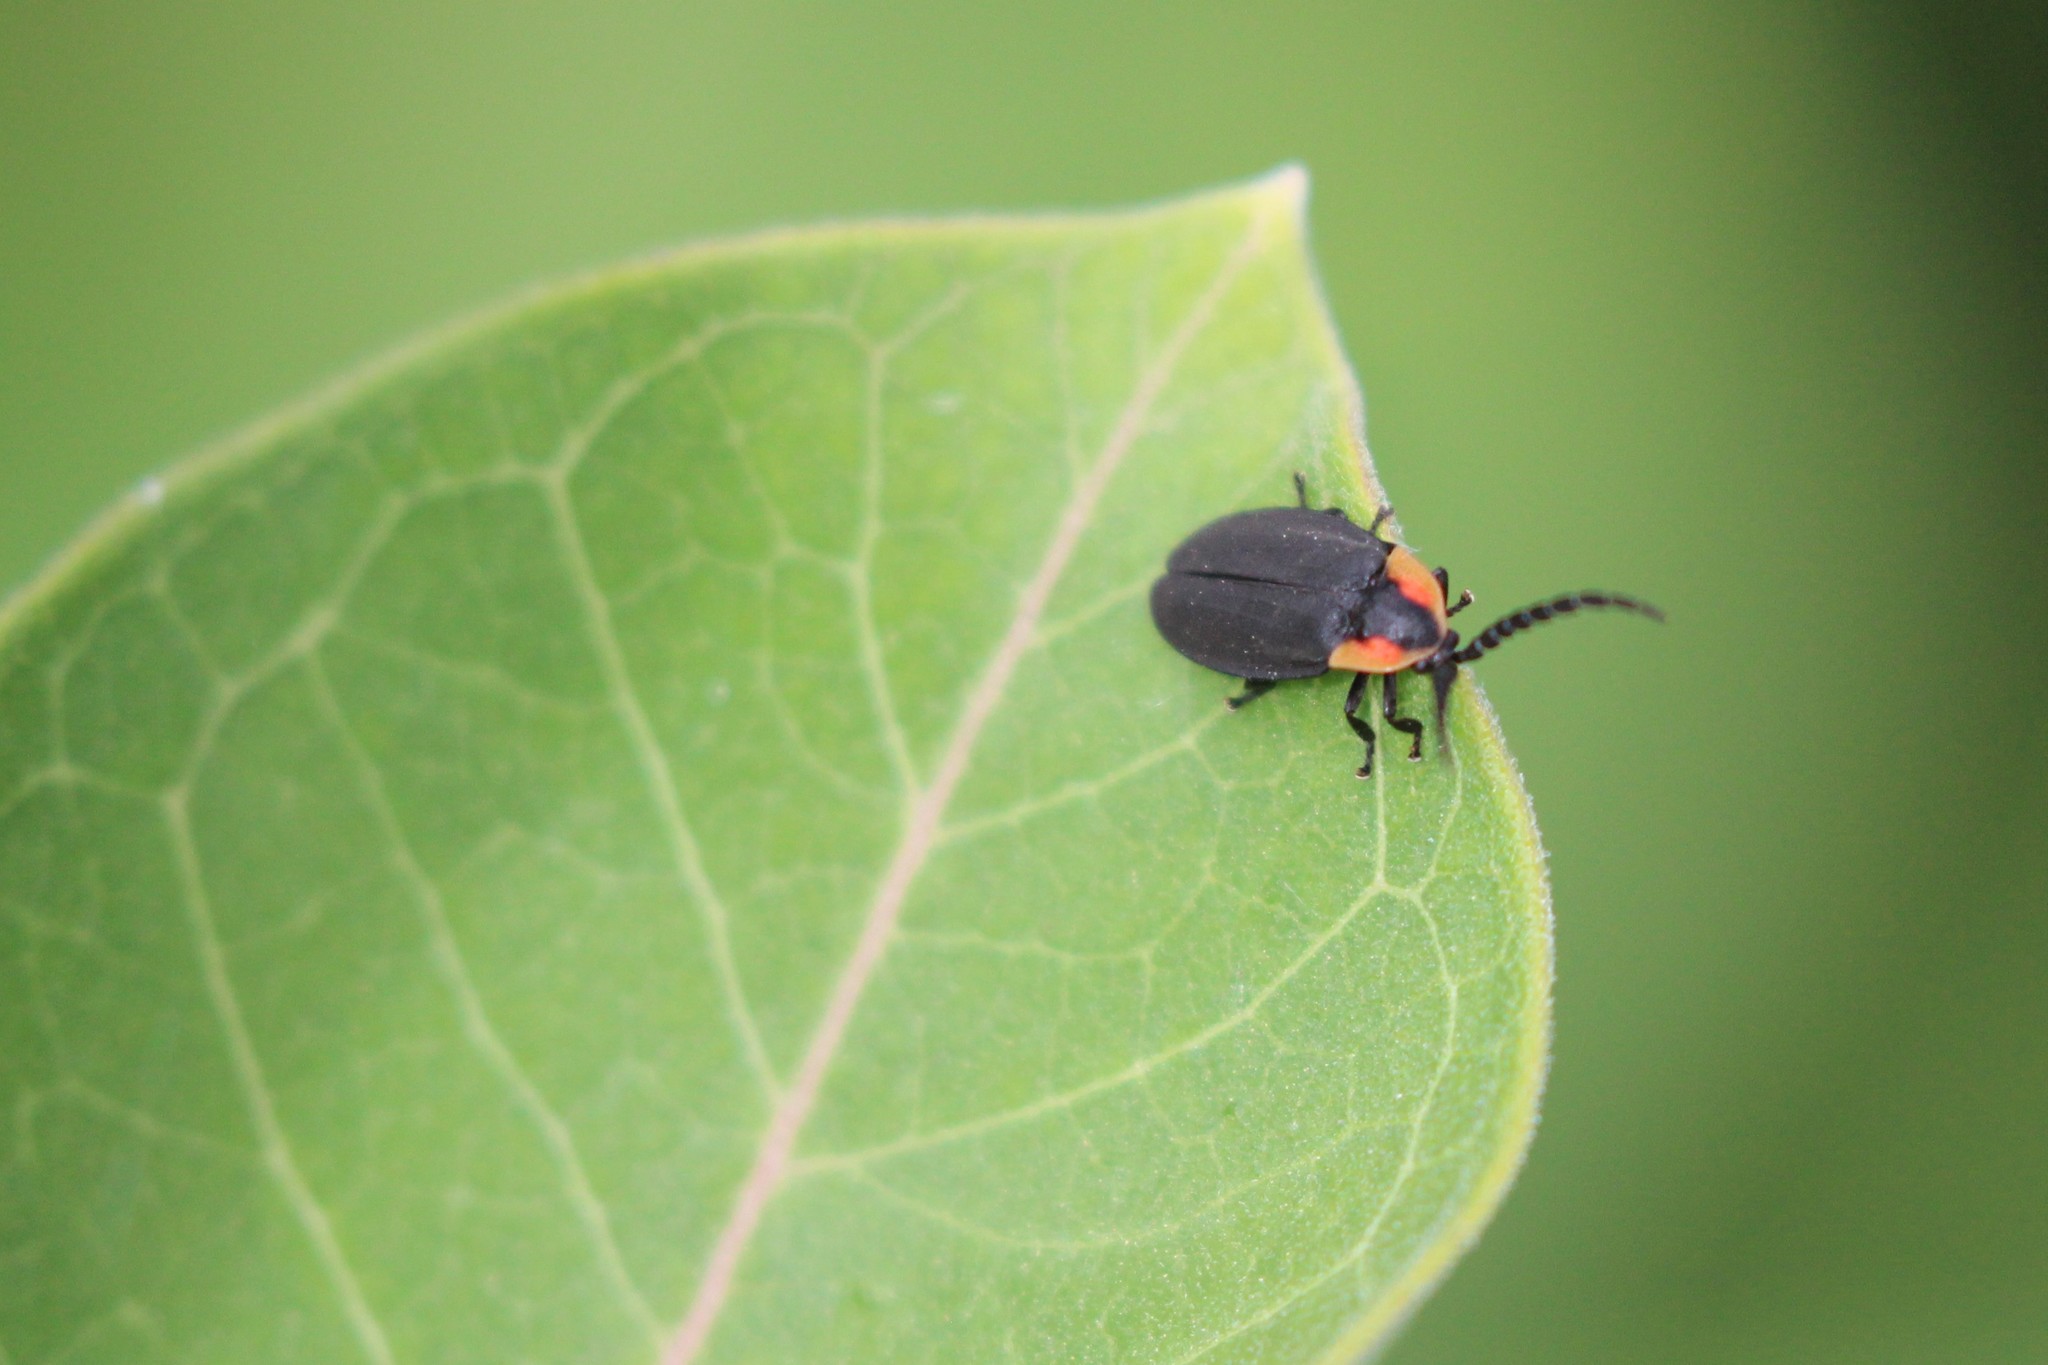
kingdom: Animalia
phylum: Arthropoda
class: Insecta
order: Coleoptera
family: Lampyridae
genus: Lucidota
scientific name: Lucidota atra
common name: Black firefly
